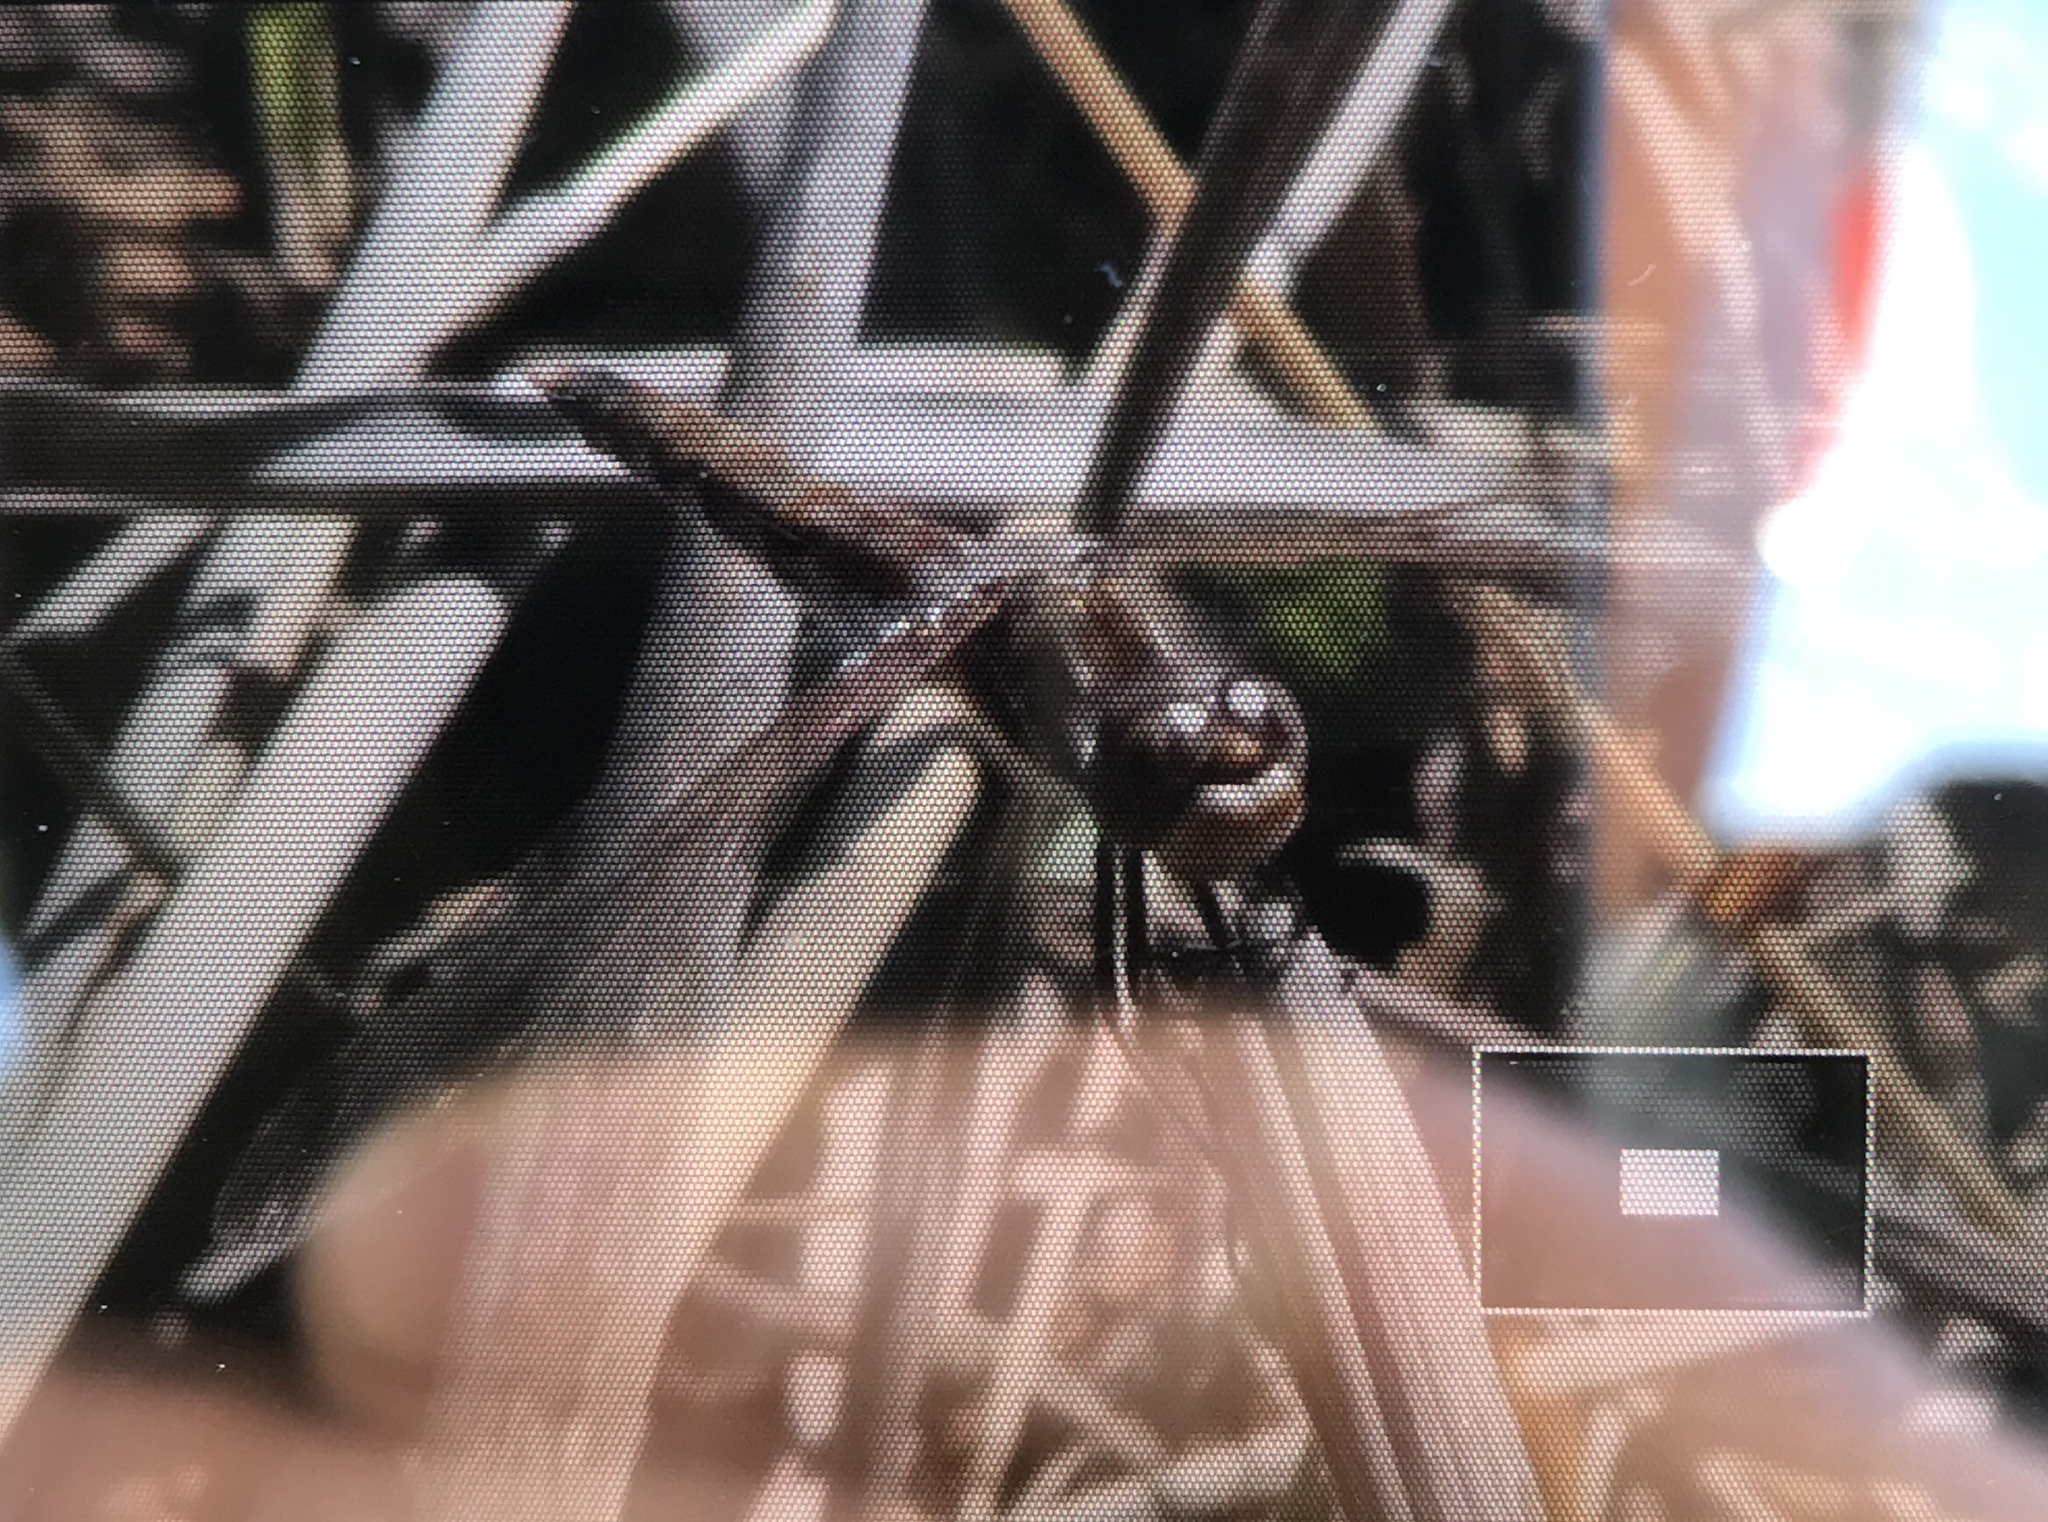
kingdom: Animalia
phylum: Arthropoda
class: Insecta
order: Odonata
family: Libellulidae
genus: Sympetrum
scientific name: Sympetrum corruptum
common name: Variegated meadowhawk
